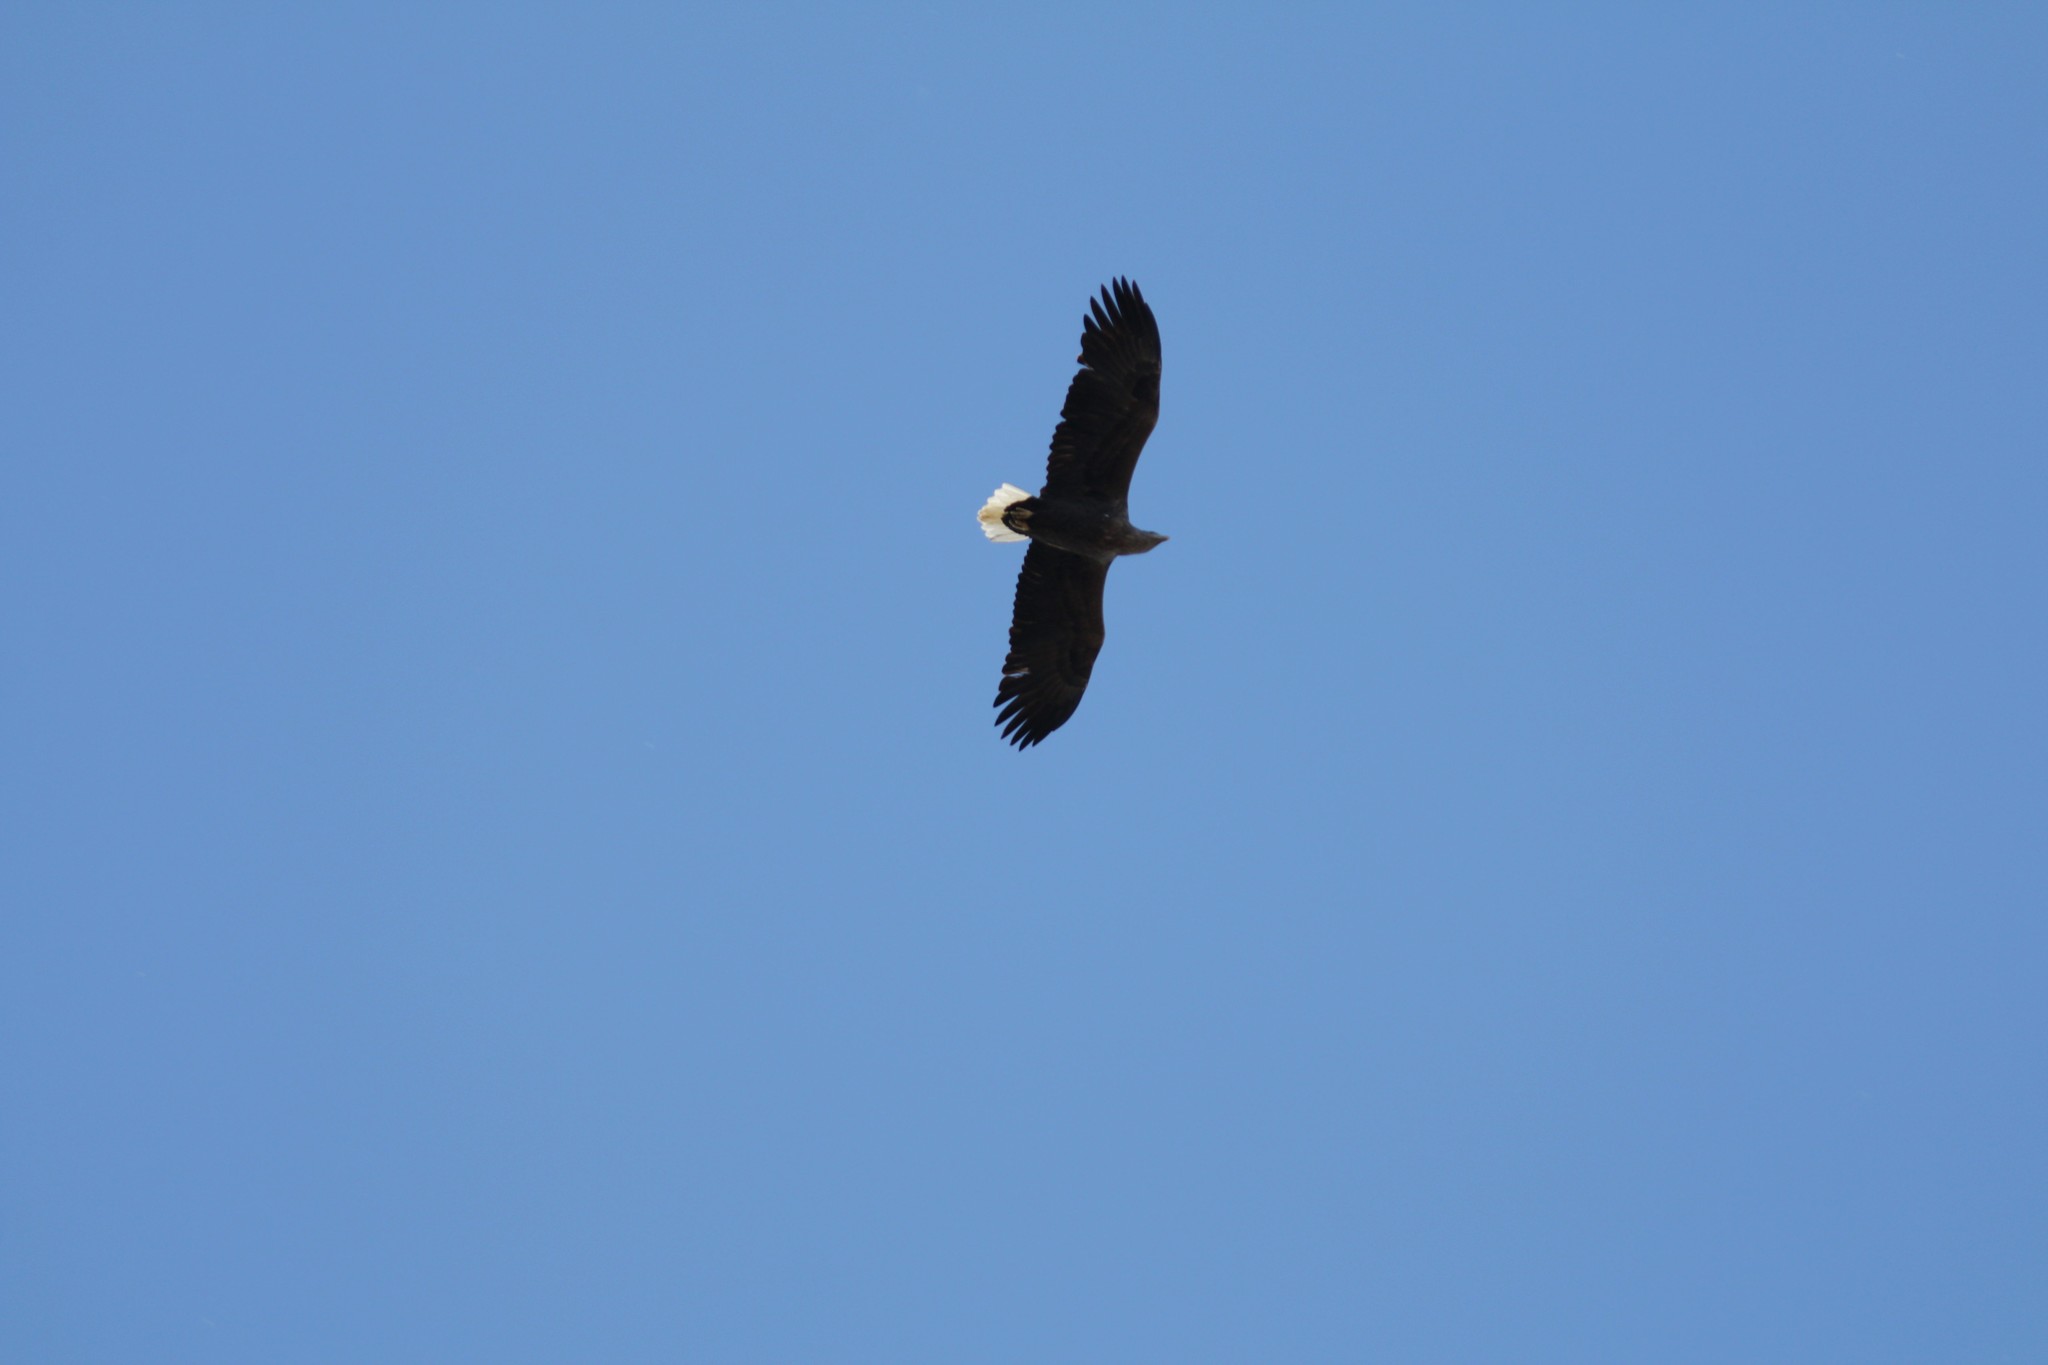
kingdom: Animalia
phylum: Chordata
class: Aves
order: Accipitriformes
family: Accipitridae
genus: Haliaeetus
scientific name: Haliaeetus albicilla
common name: White-tailed eagle
